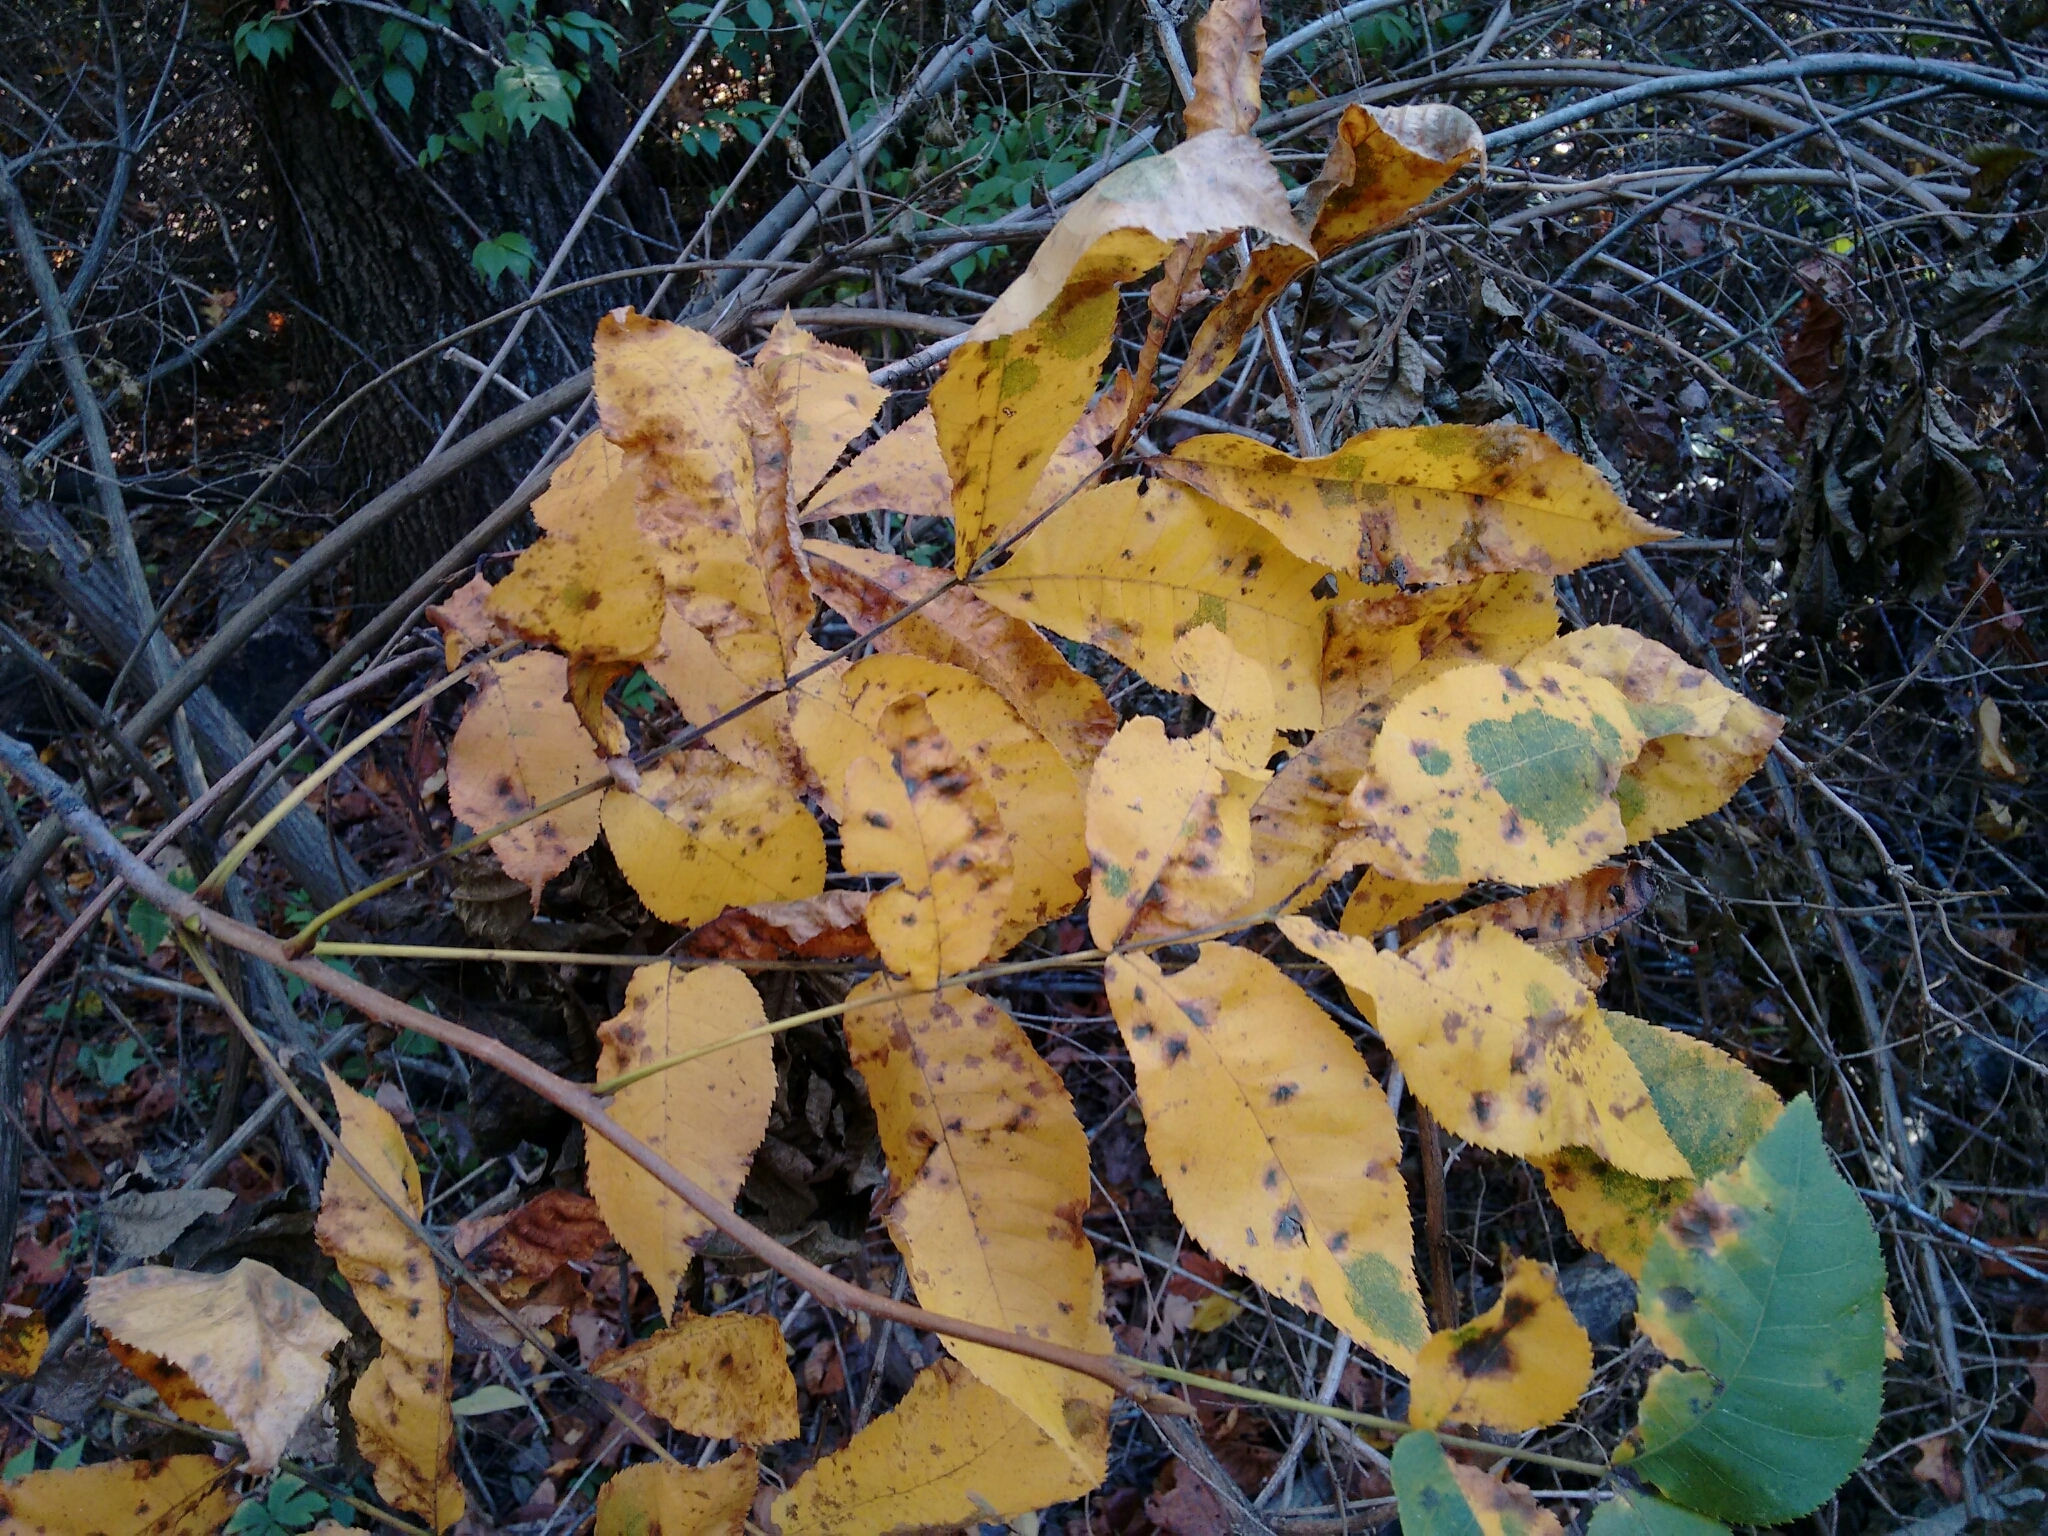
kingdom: Plantae
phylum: Tracheophyta
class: Magnoliopsida
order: Fagales
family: Juglandaceae
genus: Carya
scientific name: Carya cordiformis
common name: Bitternut hickory
